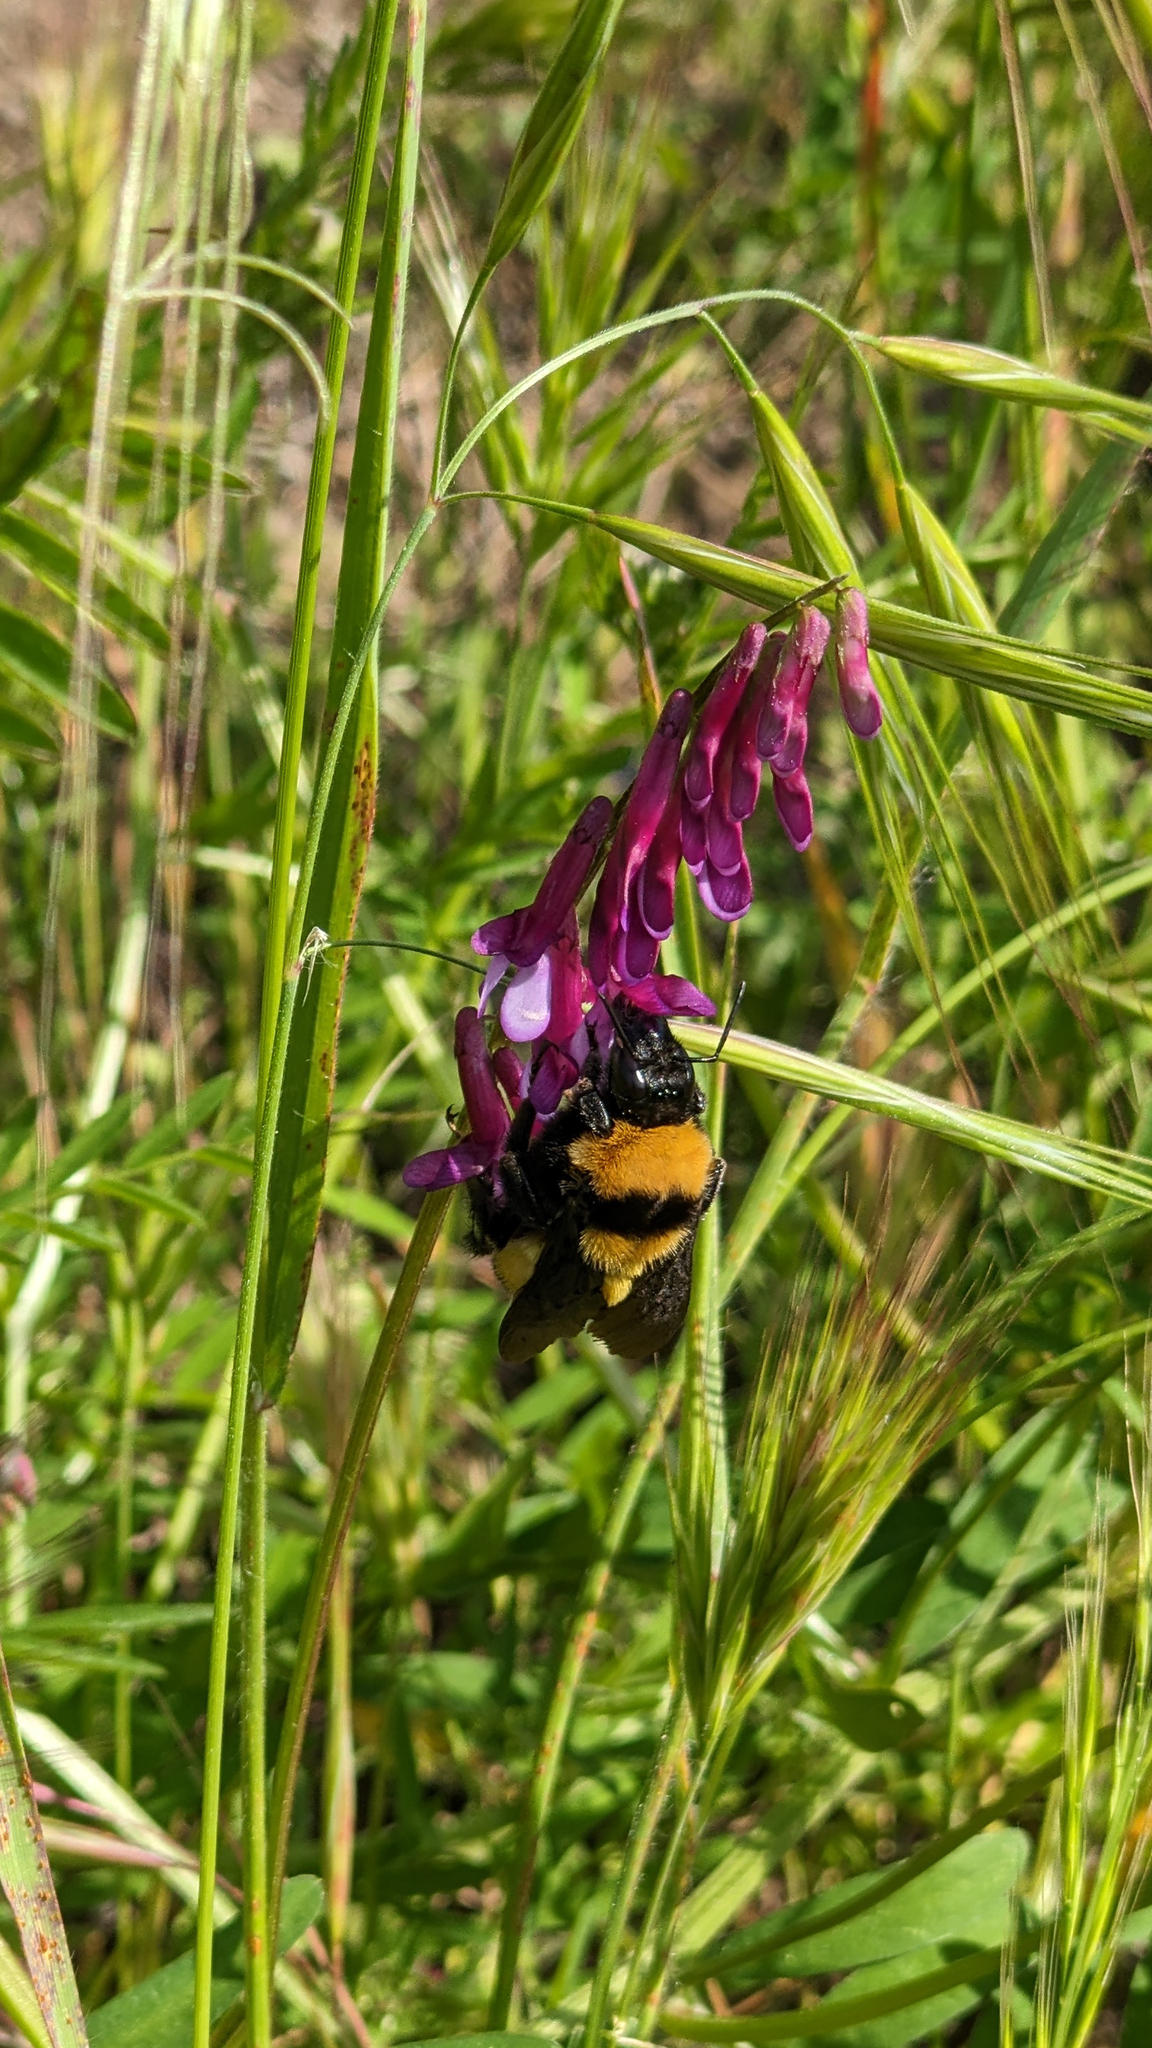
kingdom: Animalia
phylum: Arthropoda
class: Insecta
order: Hymenoptera
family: Apidae
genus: Bombus
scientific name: Bombus sonorus
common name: Sonoran bumble bee
